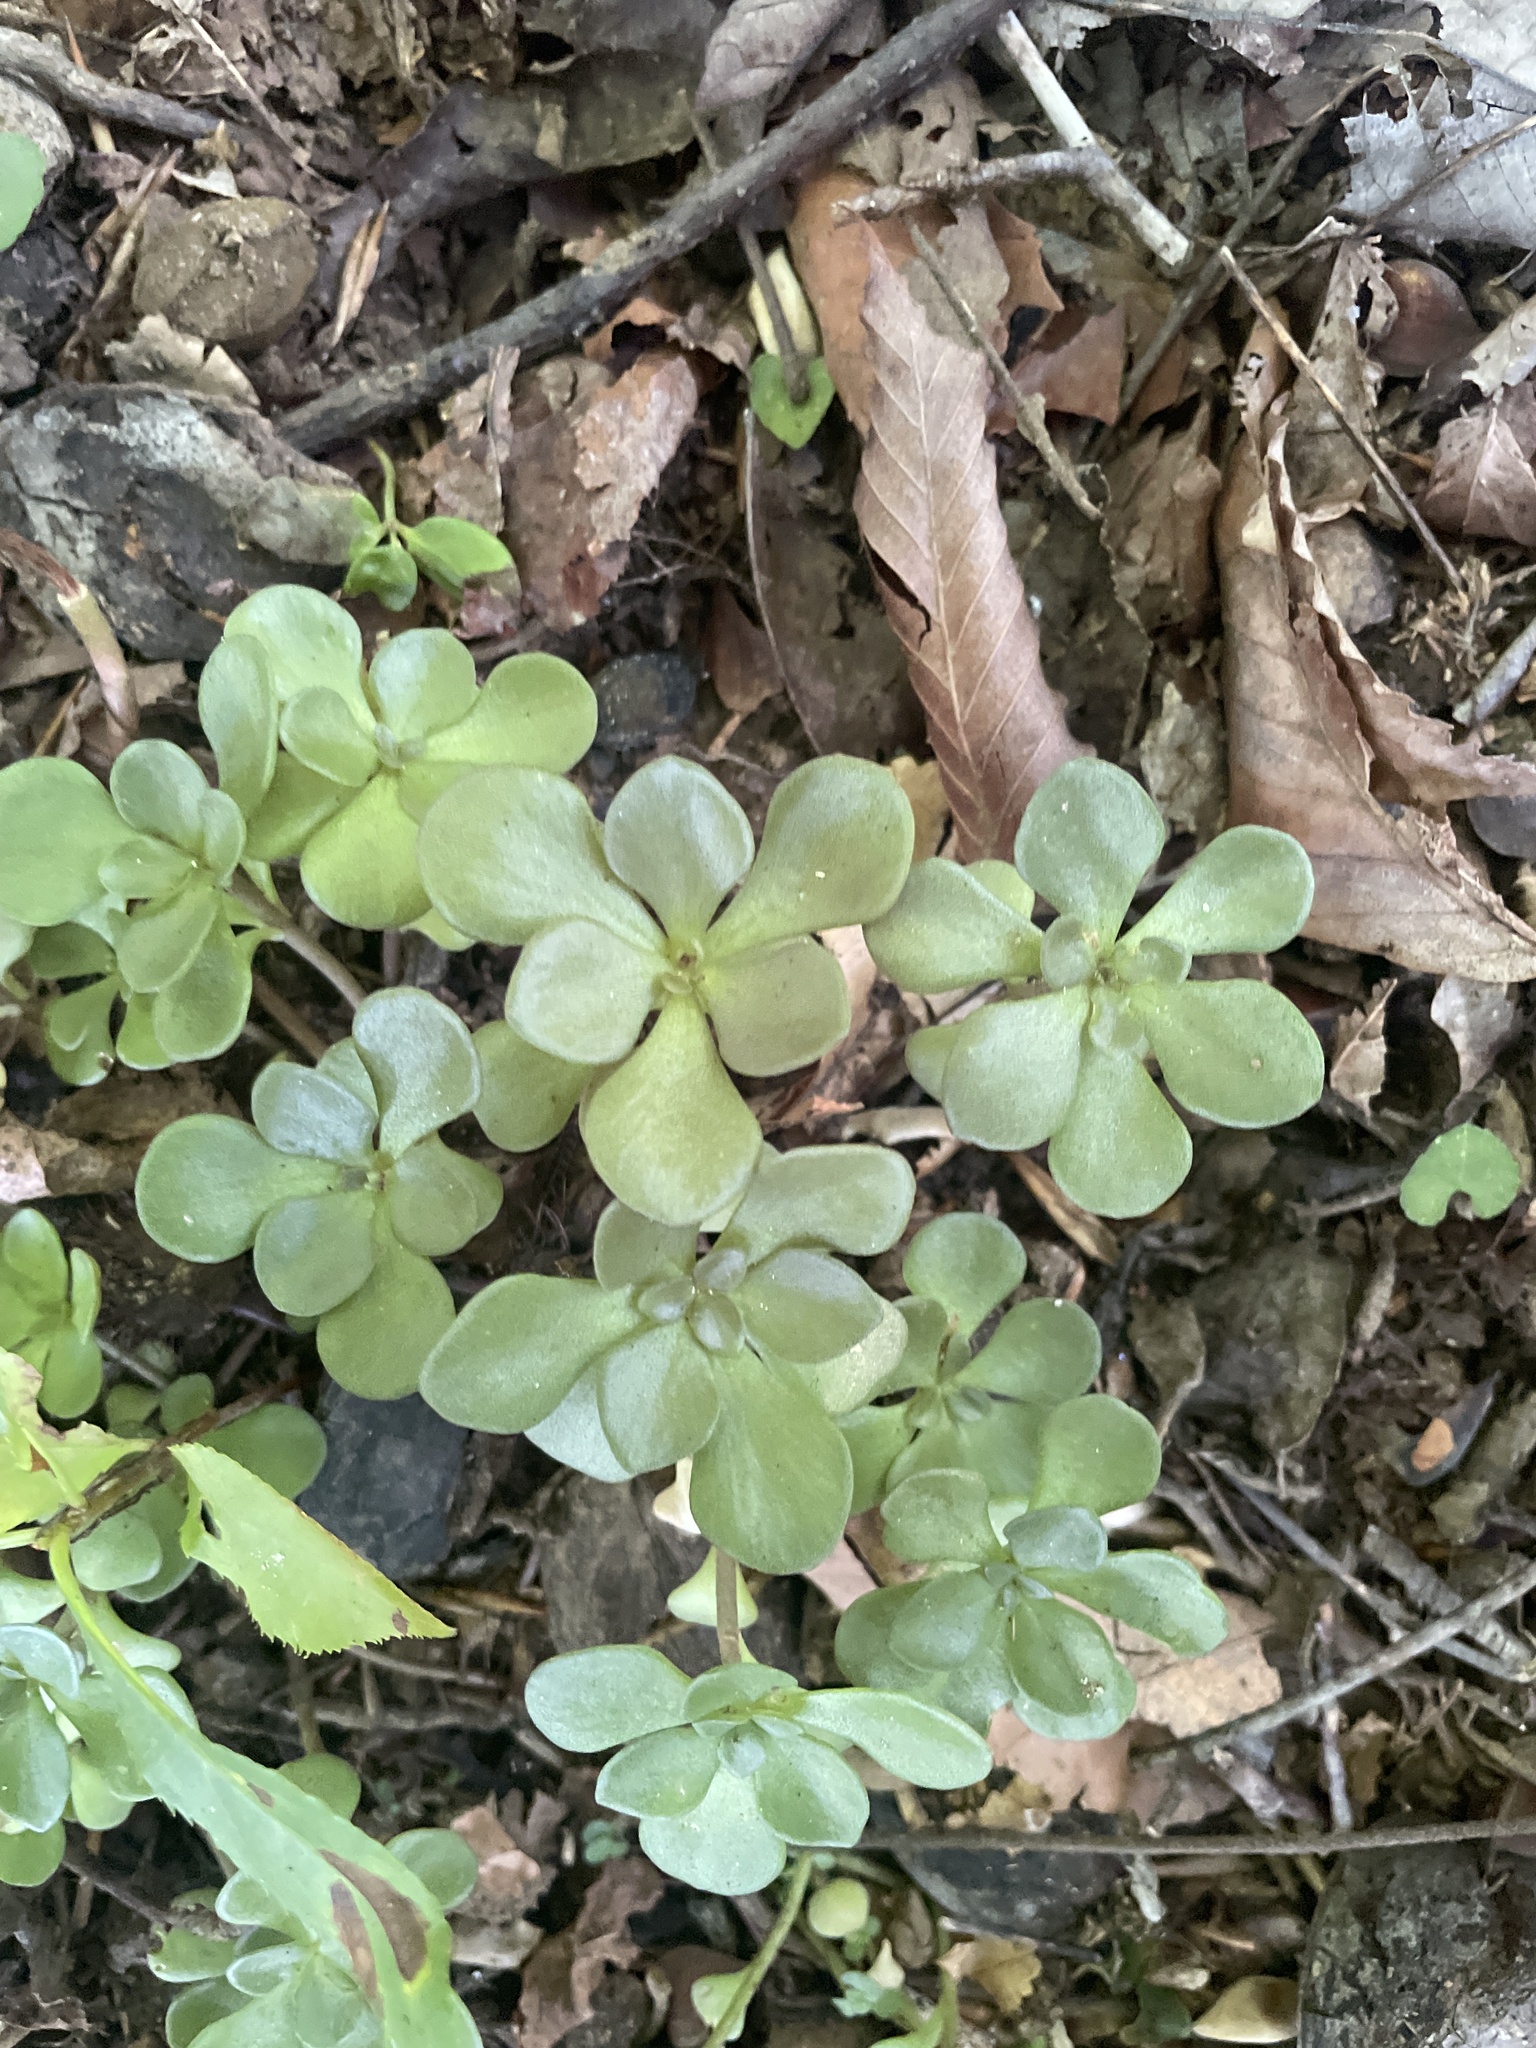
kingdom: Plantae
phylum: Tracheophyta
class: Magnoliopsida
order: Saxifragales
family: Crassulaceae
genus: Sedum
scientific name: Sedum ternatum
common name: Wild stonecrop
